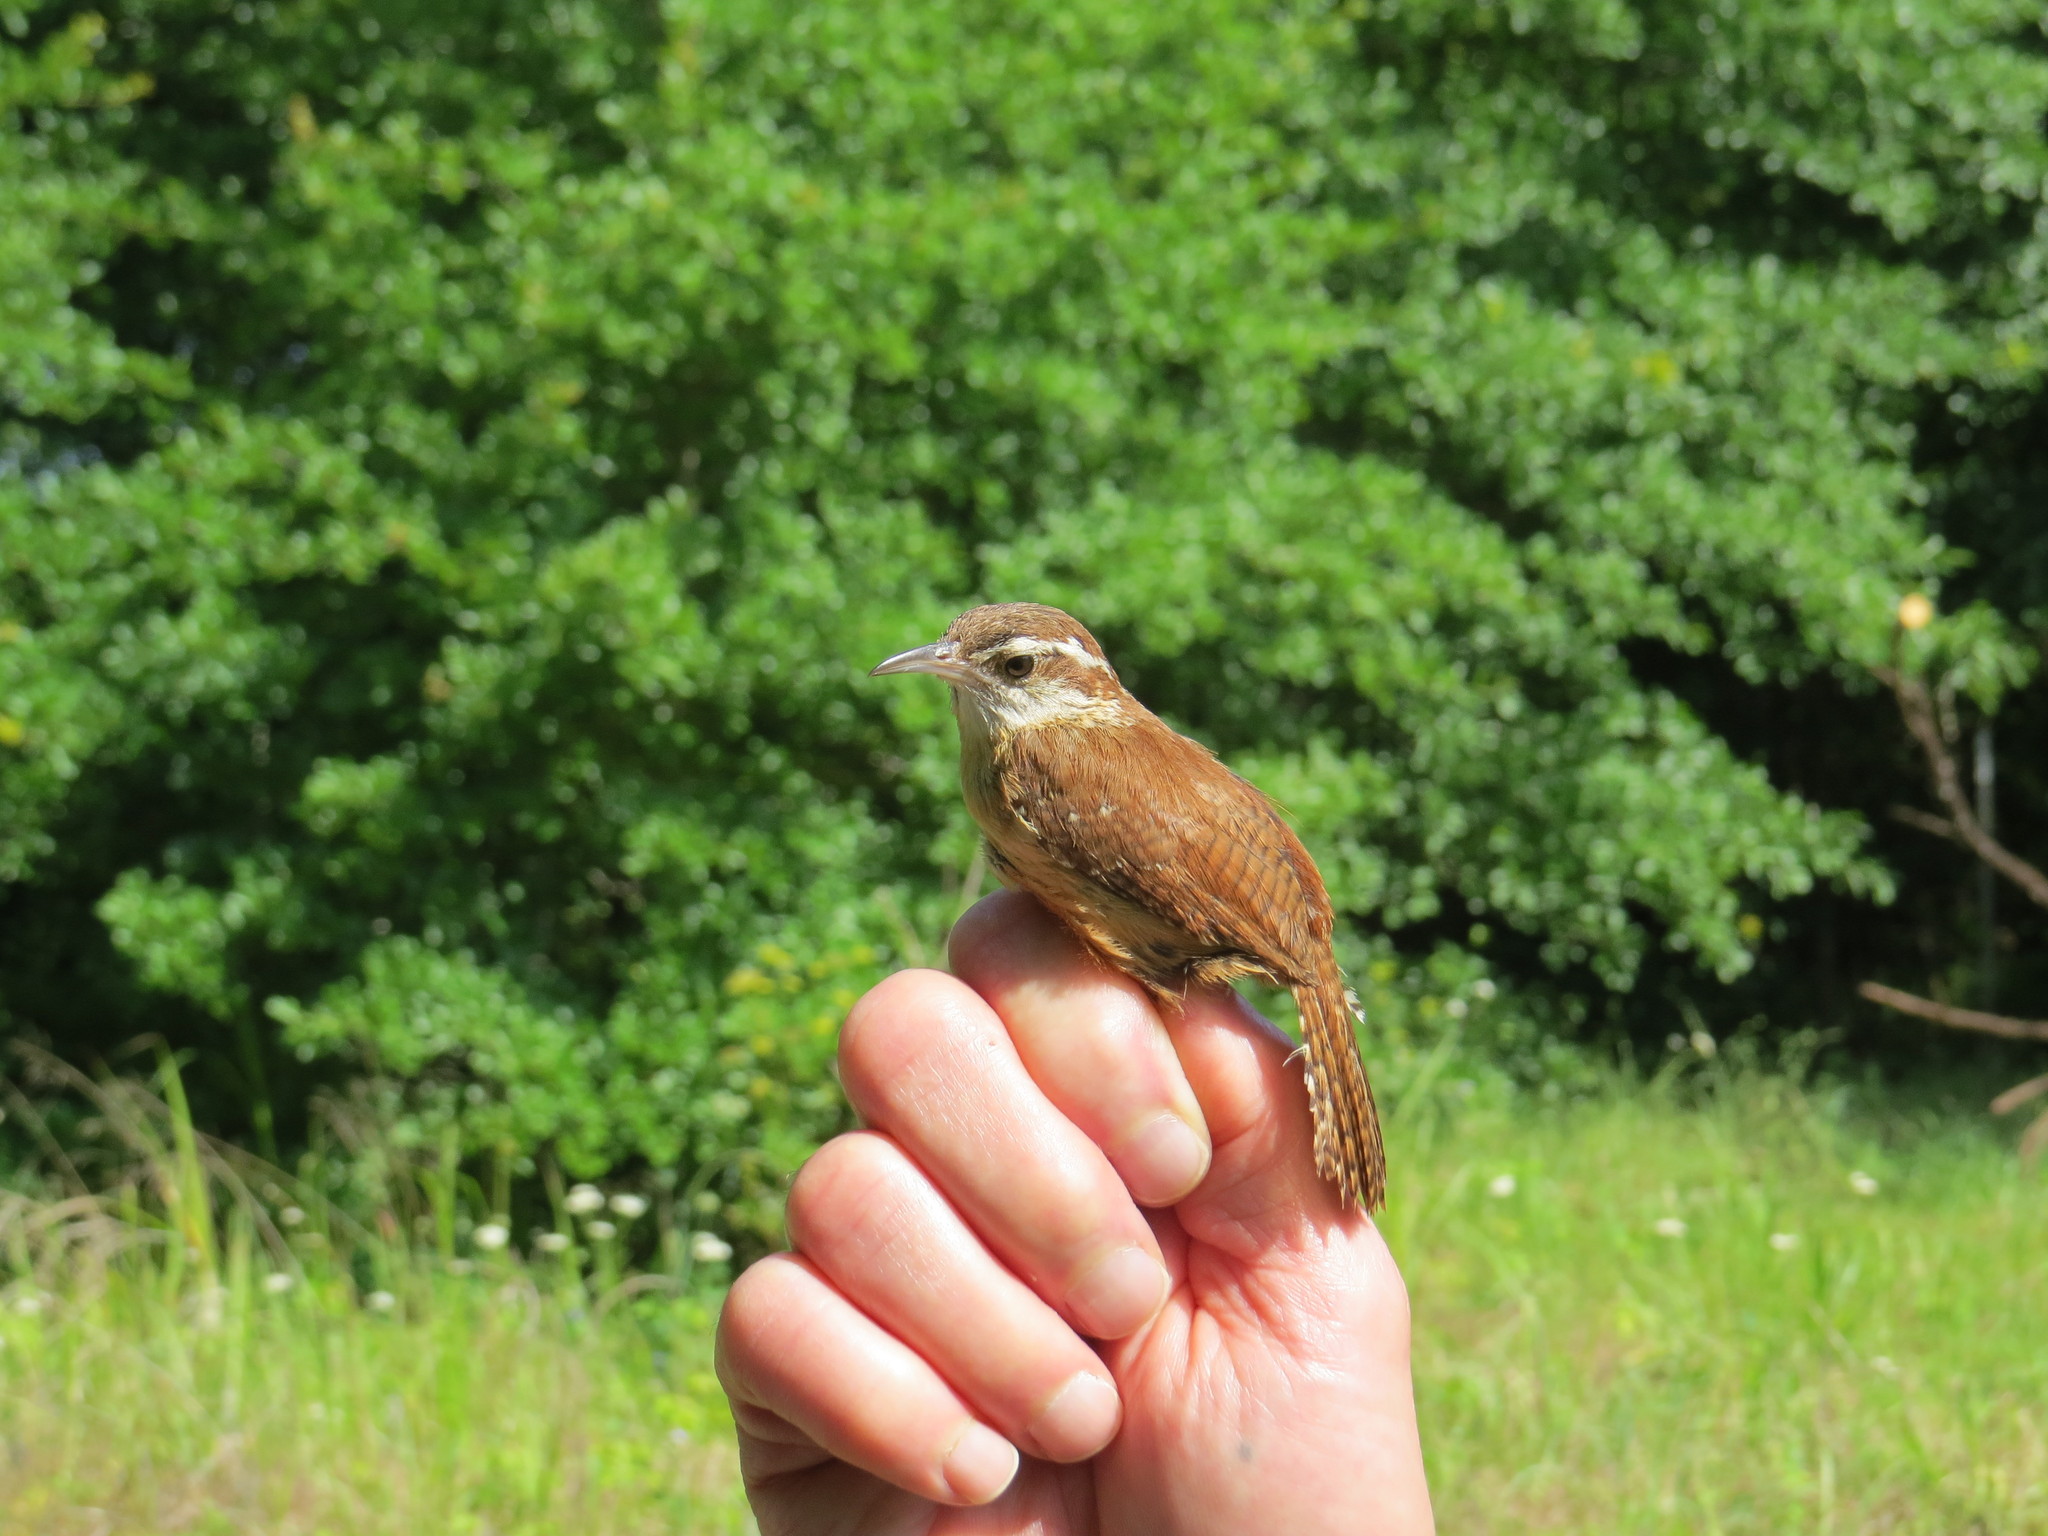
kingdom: Animalia
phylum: Chordata
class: Aves
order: Passeriformes
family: Troglodytidae
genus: Thryothorus
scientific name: Thryothorus ludovicianus
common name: Carolina wren
